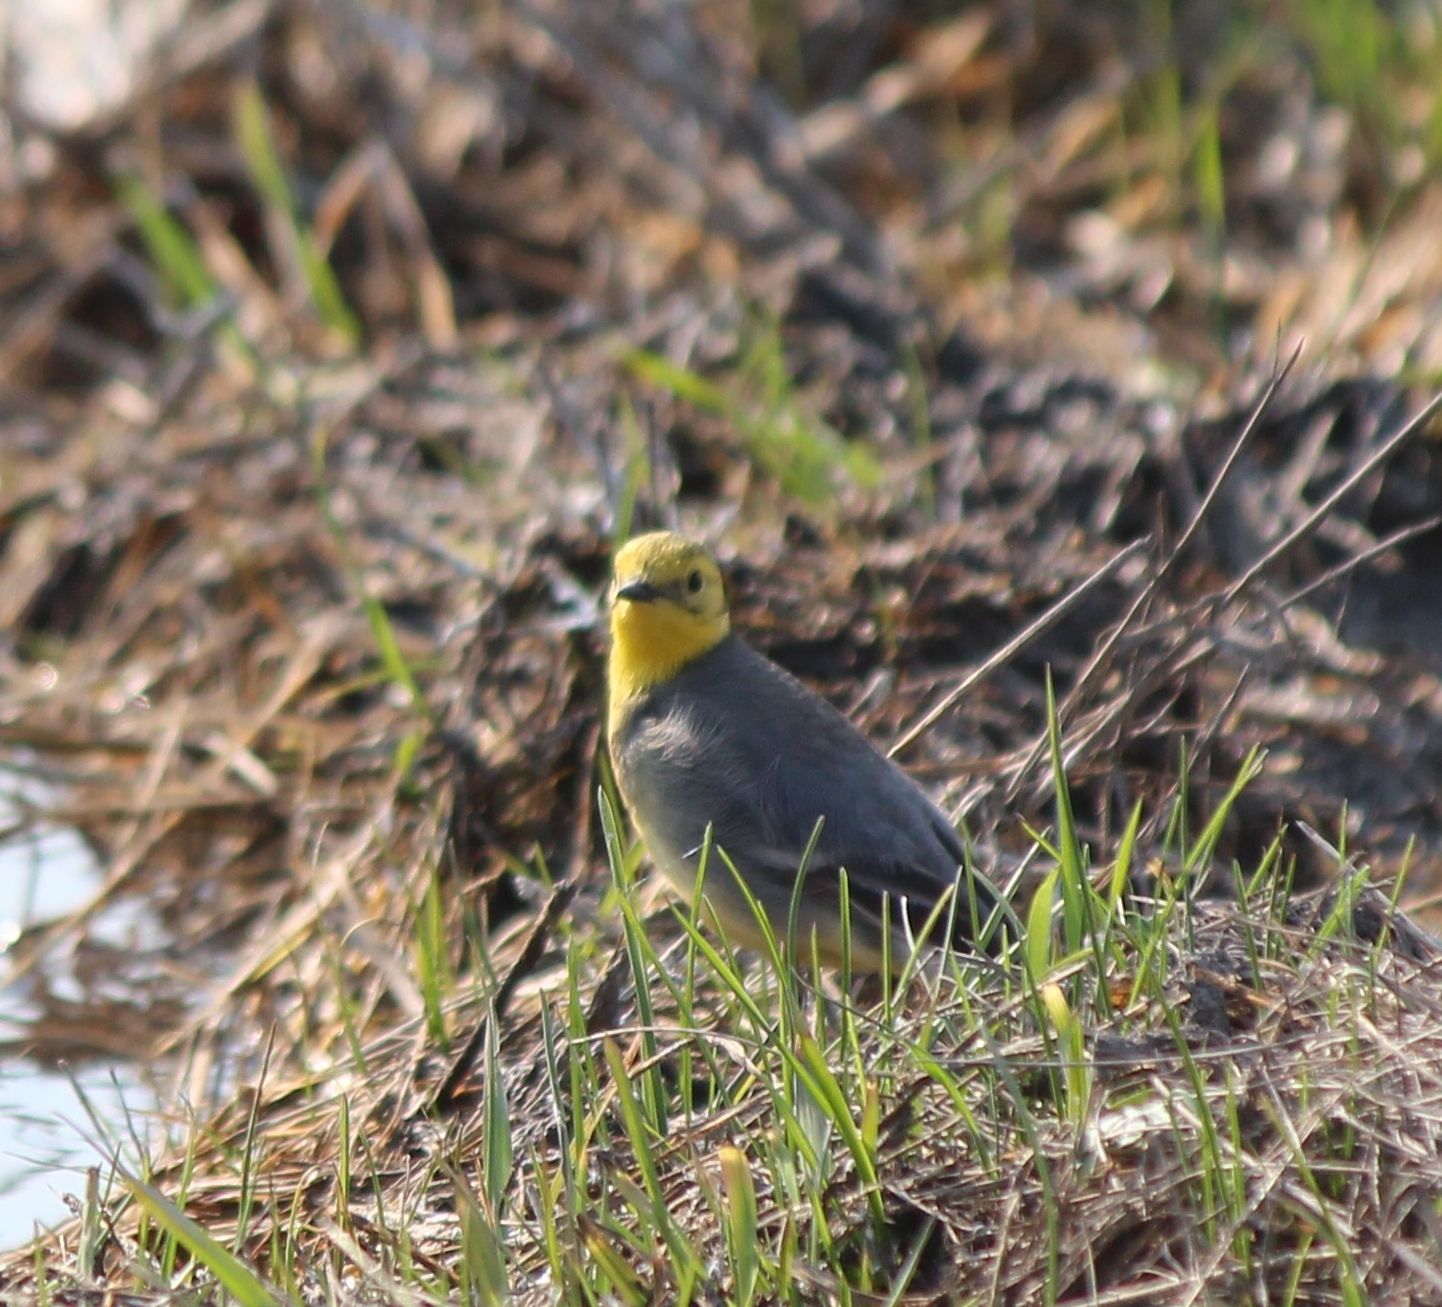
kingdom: Animalia
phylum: Chordata
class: Aves
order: Passeriformes
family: Motacillidae
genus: Motacilla
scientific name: Motacilla citreola
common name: Citrine wagtail
